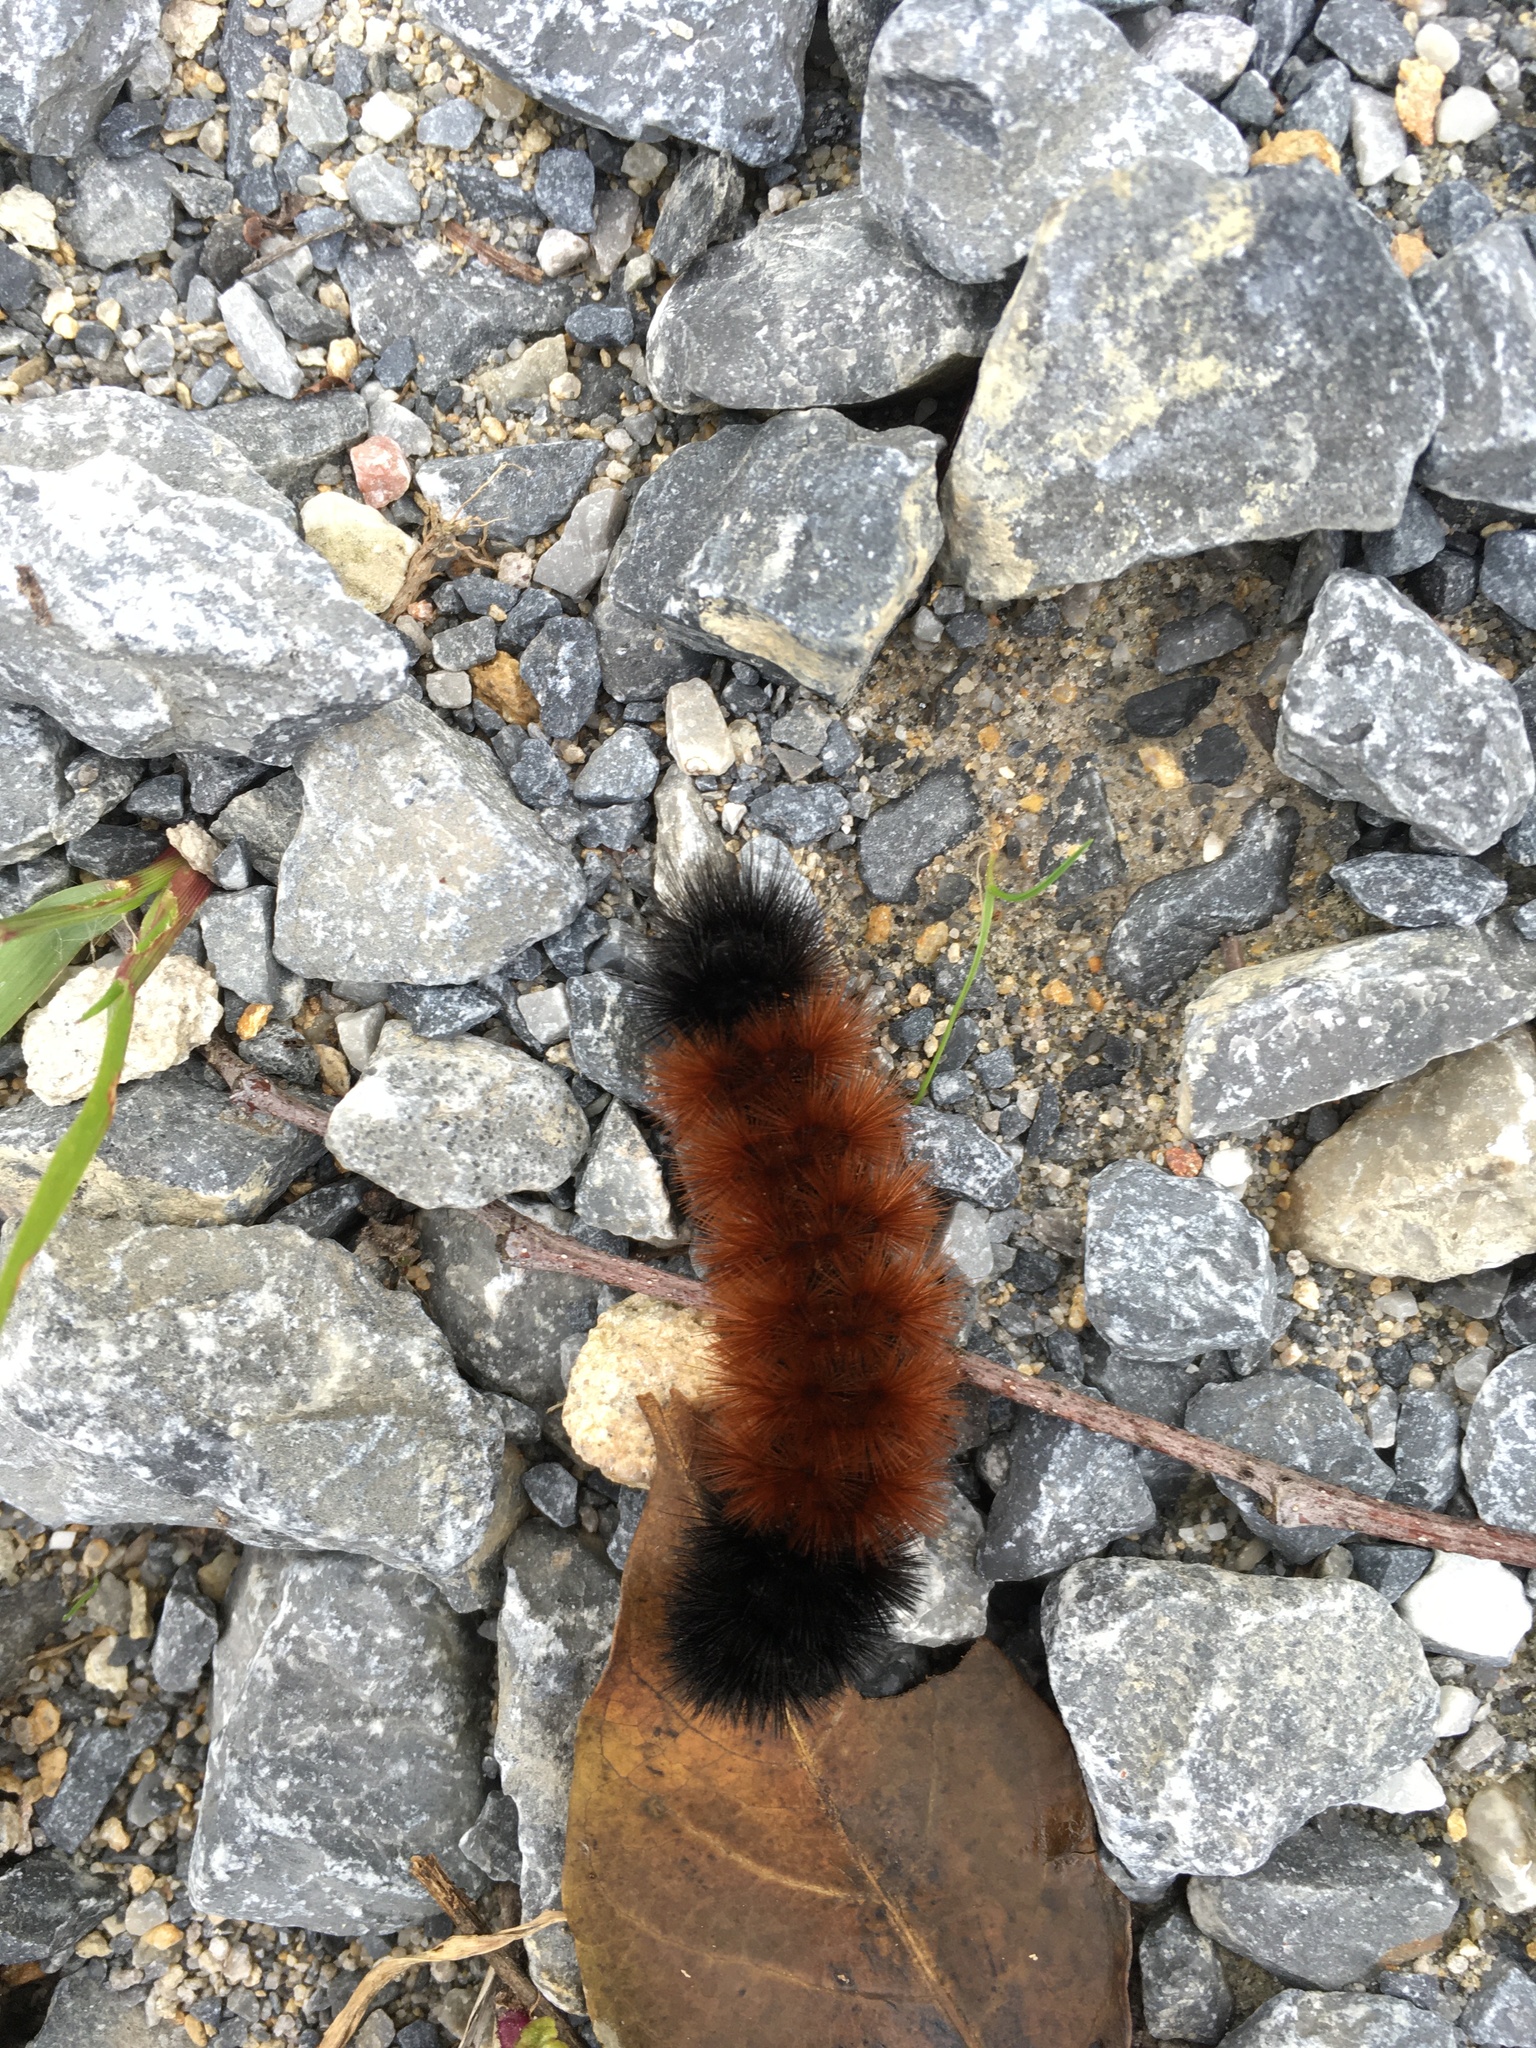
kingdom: Animalia
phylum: Arthropoda
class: Insecta
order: Lepidoptera
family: Erebidae
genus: Pyrrharctia
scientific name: Pyrrharctia isabella
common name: Isabella tiger moth
